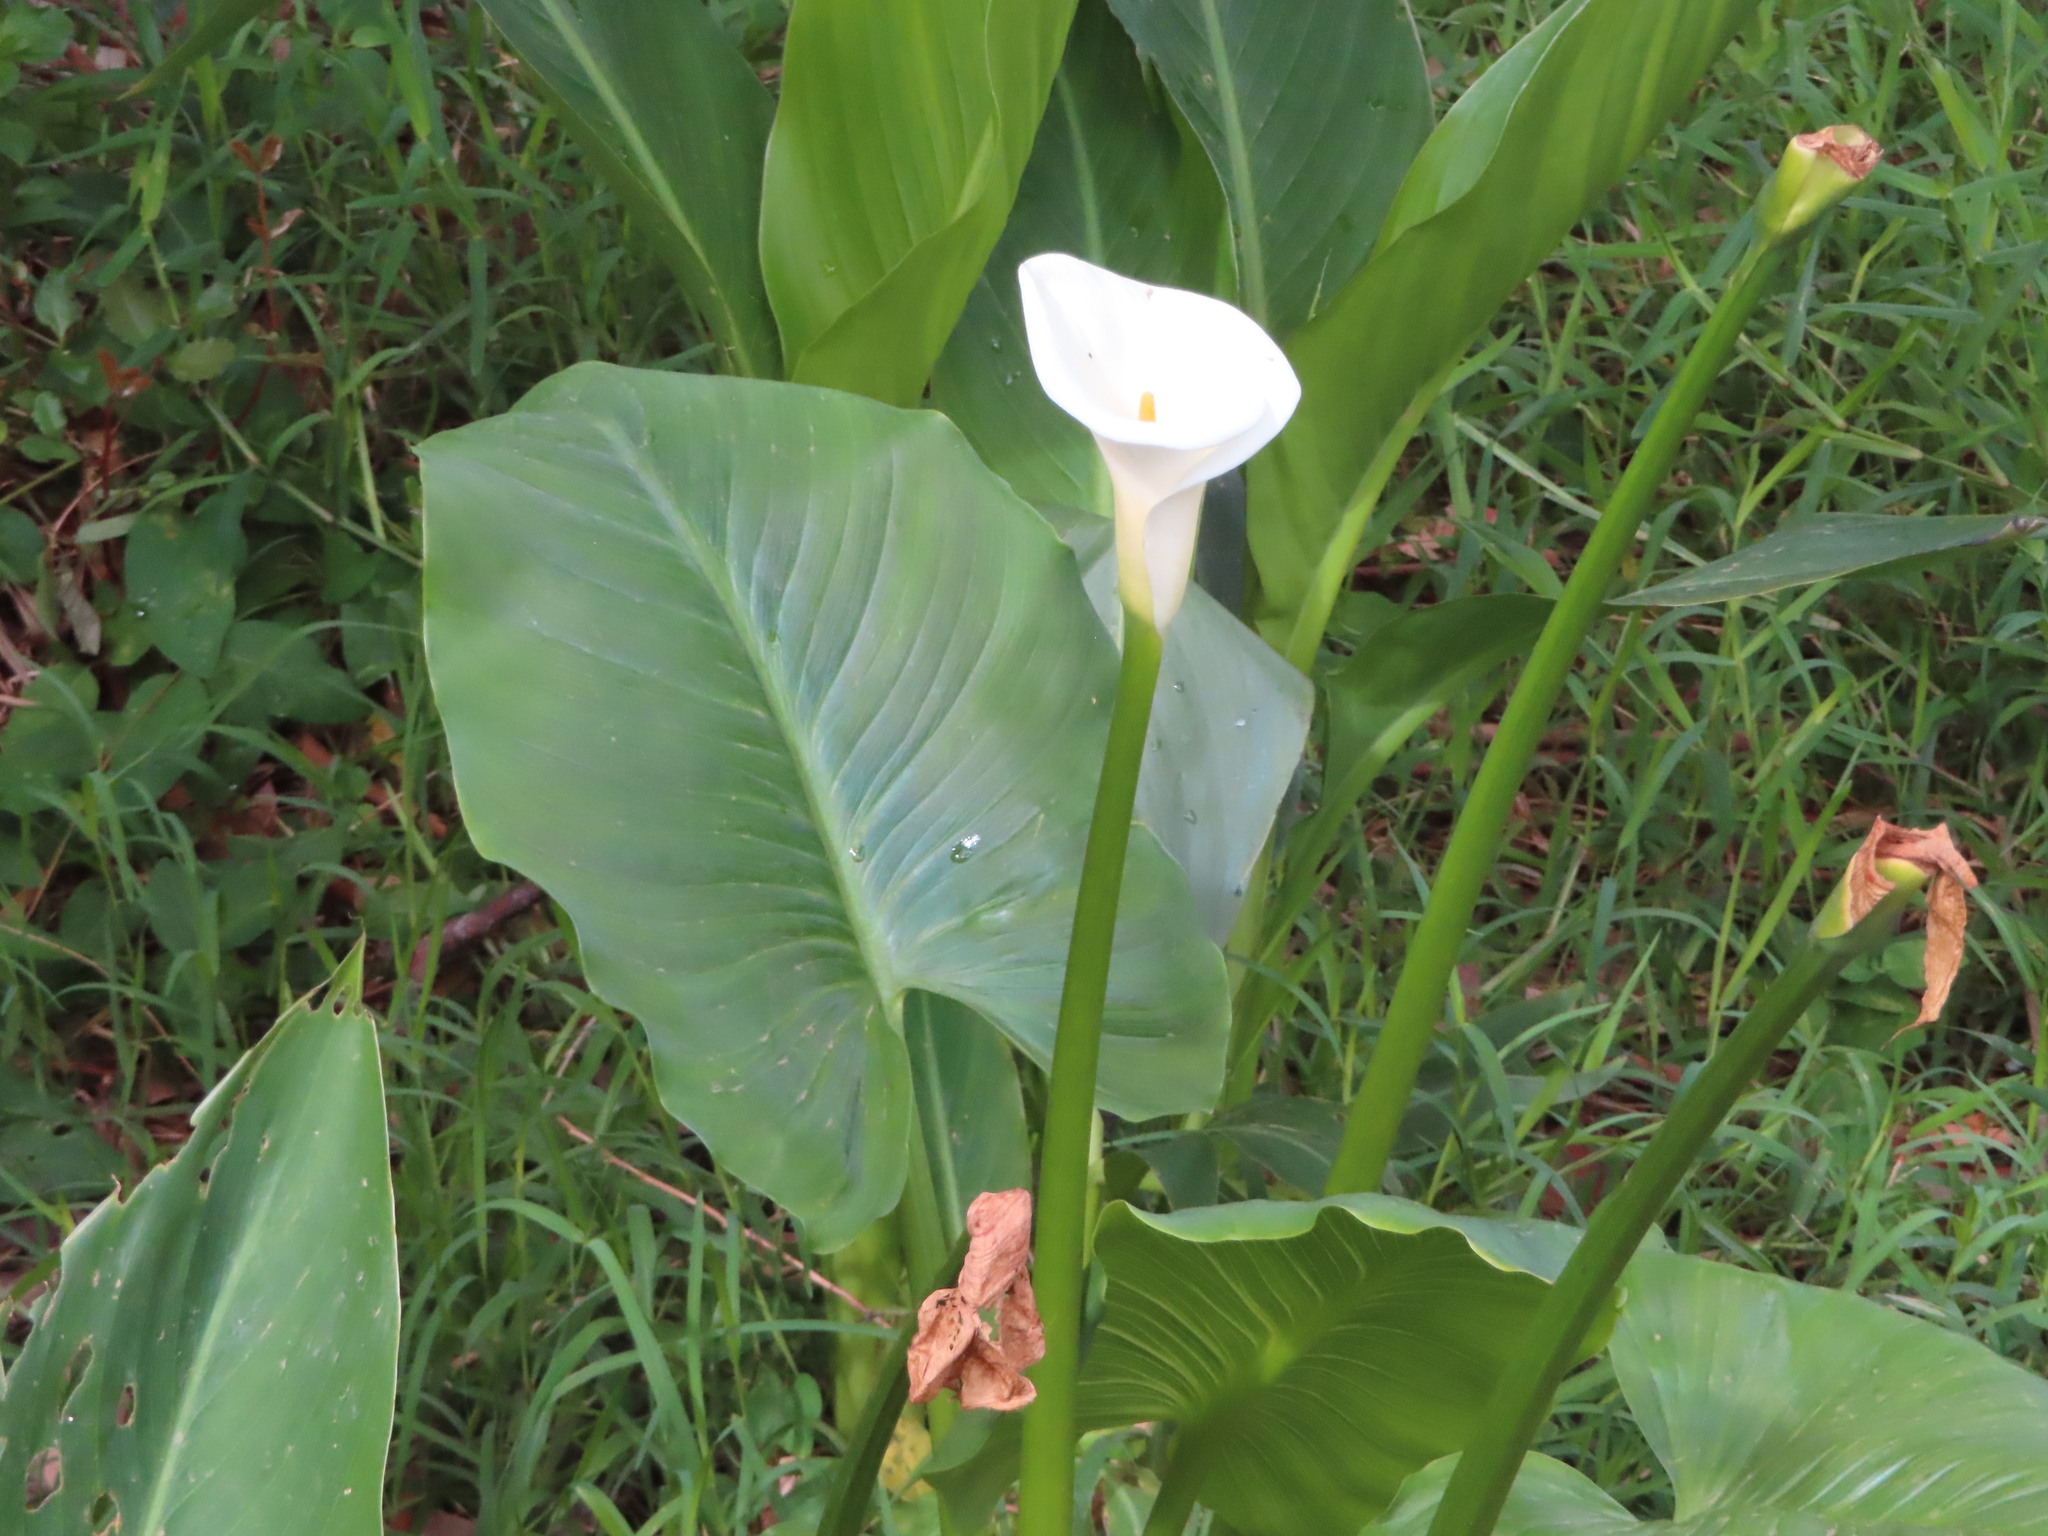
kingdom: Plantae
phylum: Tracheophyta
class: Liliopsida
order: Alismatales
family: Araceae
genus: Zantedeschia
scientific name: Zantedeschia aethiopica
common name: Altar-lily
